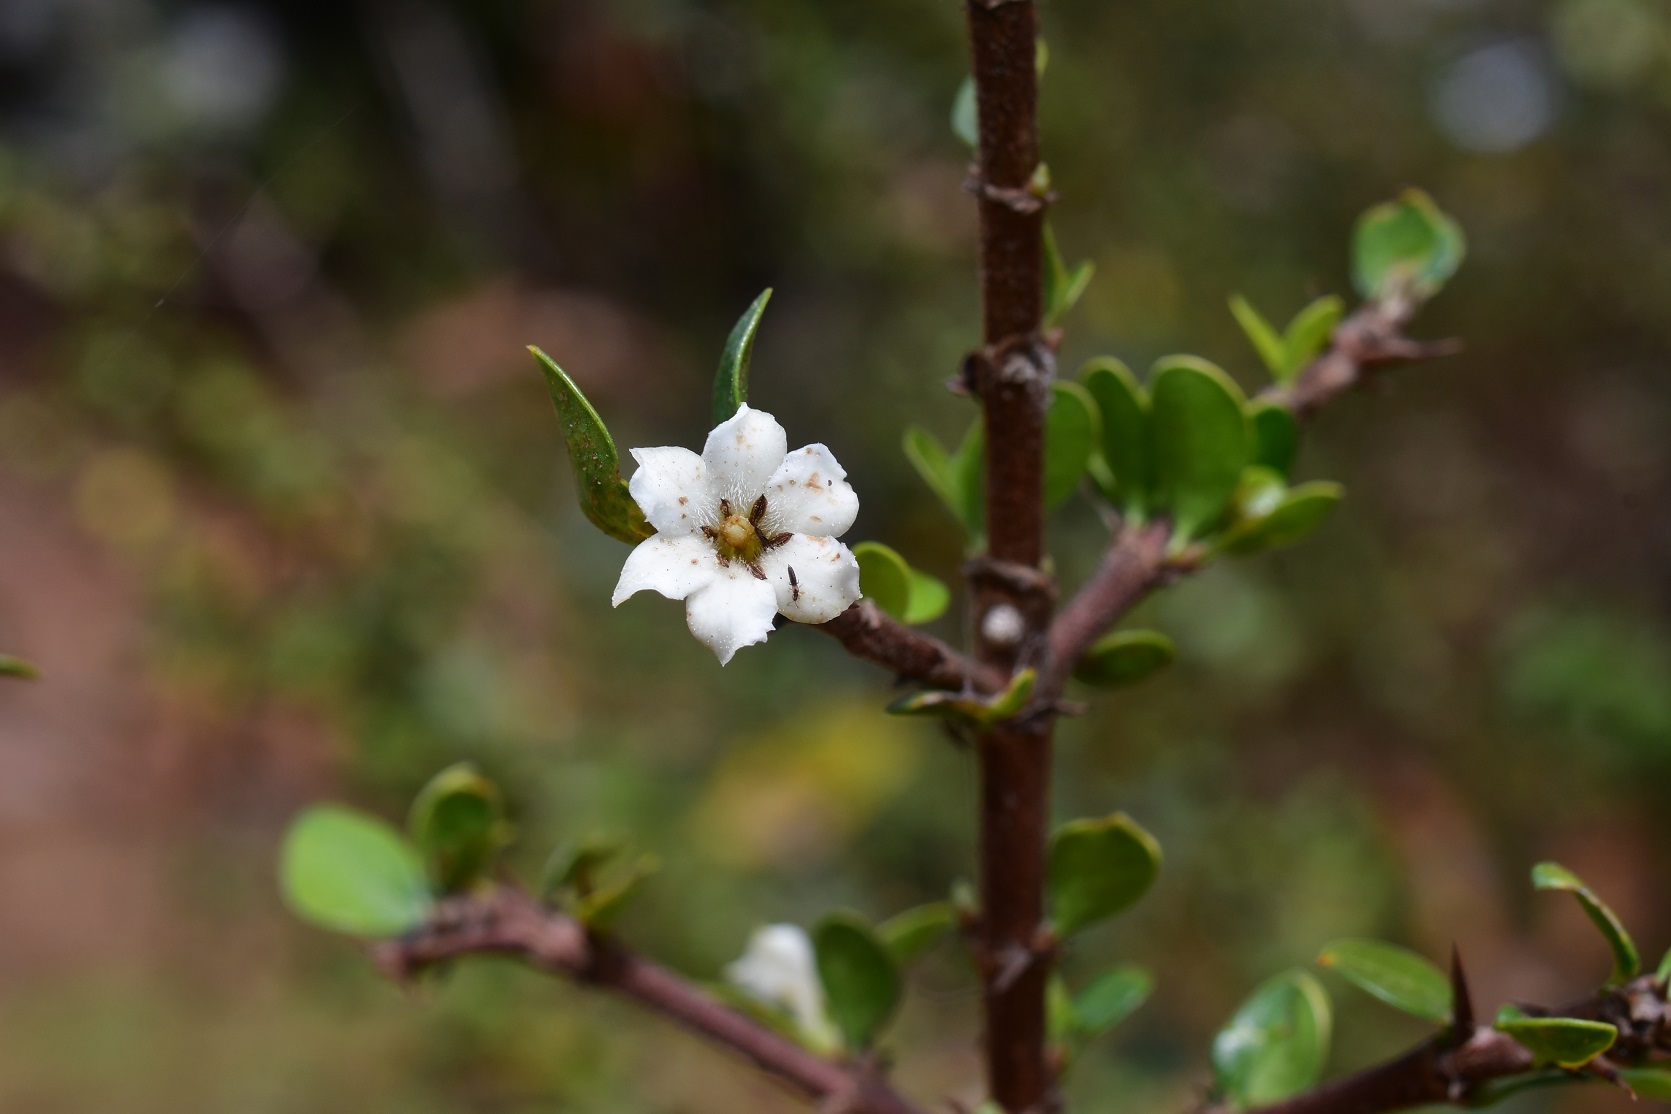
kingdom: Plantae
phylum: Tracheophyta
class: Magnoliopsida
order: Gentianales
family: Rubiaceae
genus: Randia
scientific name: Randia chiapensis
